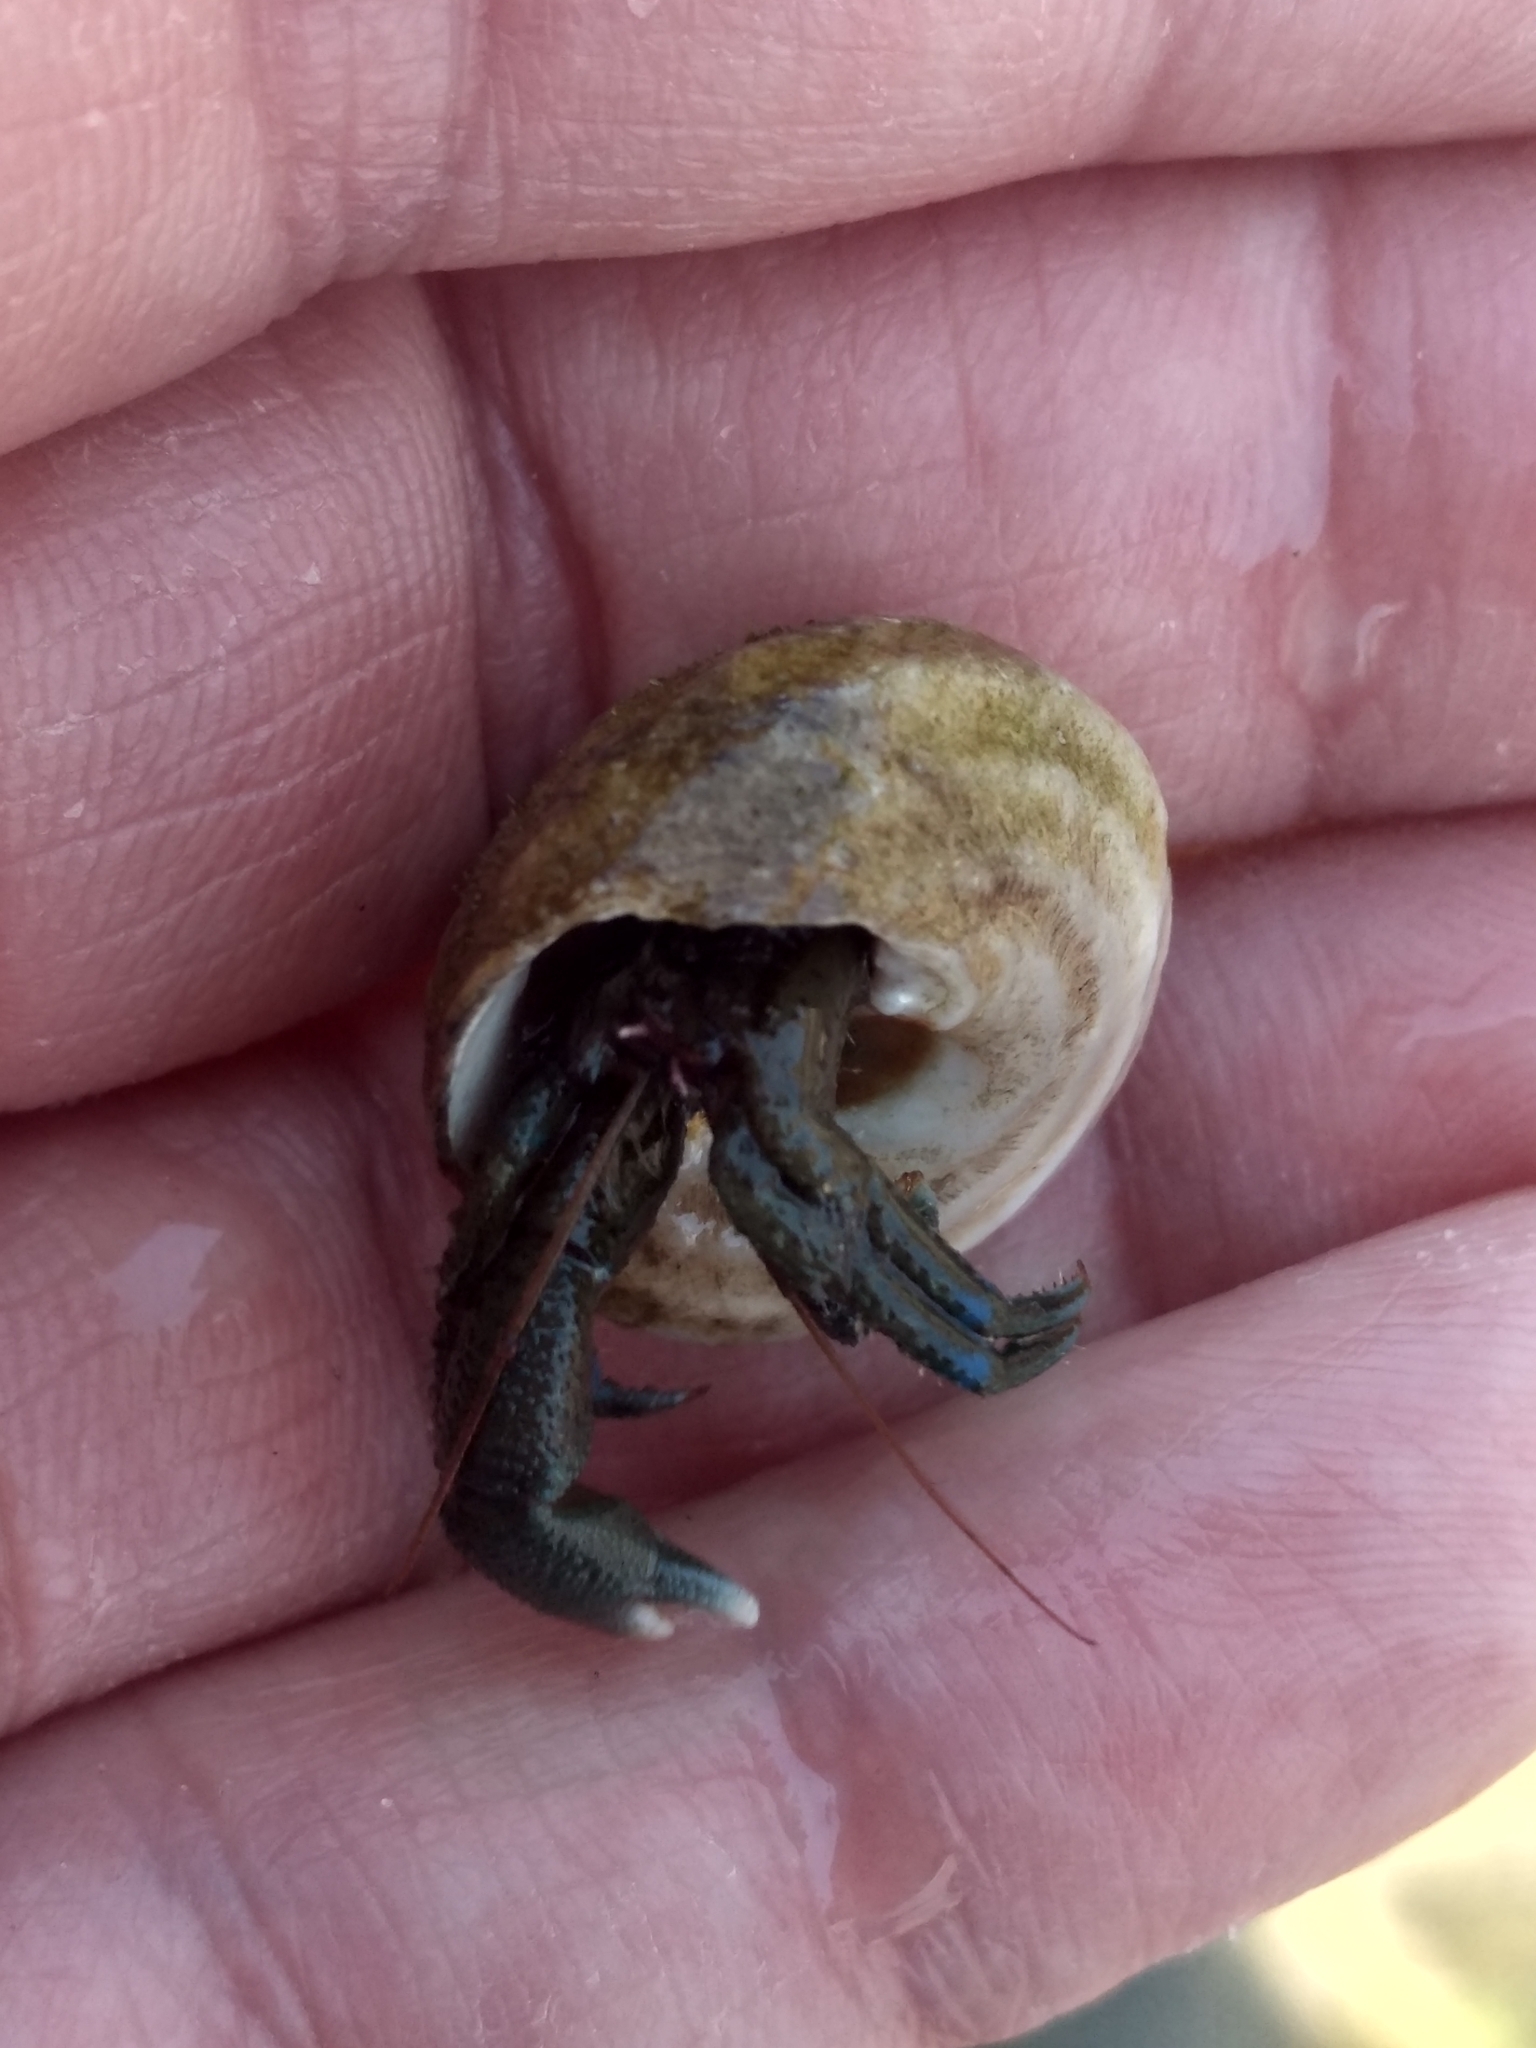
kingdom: Animalia
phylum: Arthropoda
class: Malacostraca
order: Decapoda
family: Paguridae
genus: Pagurus
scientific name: Pagurus samuelis
